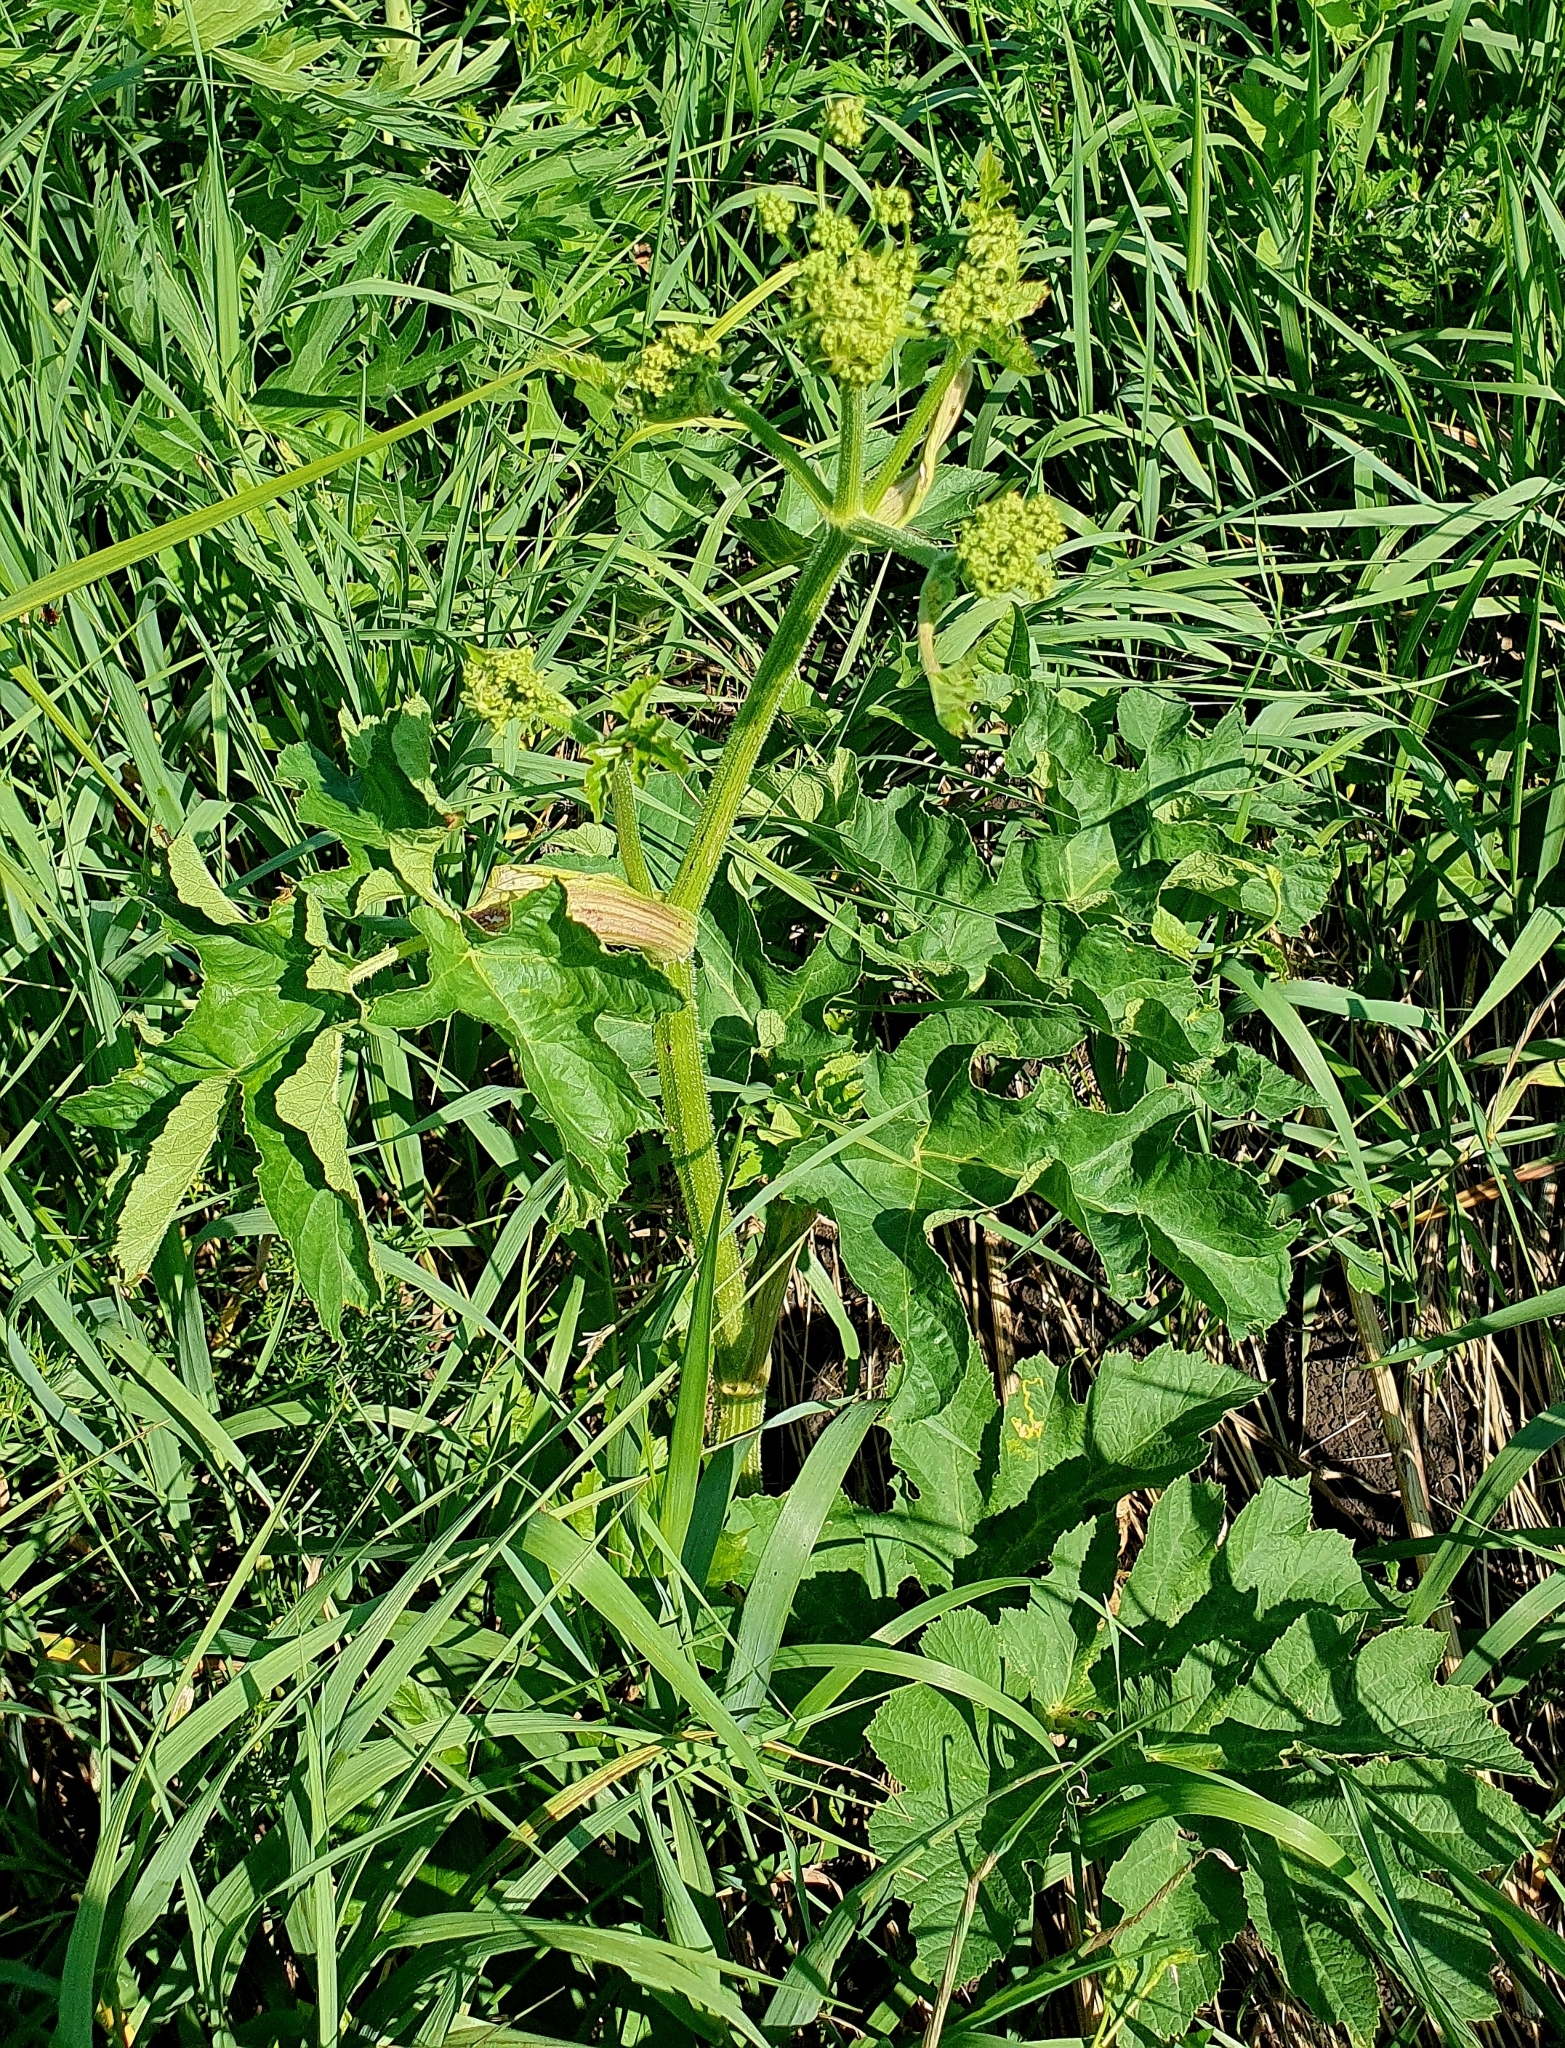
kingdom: Plantae
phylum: Tracheophyta
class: Magnoliopsida
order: Apiales
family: Apiaceae
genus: Heracleum
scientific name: Heracleum sphondylium
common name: Hogweed
